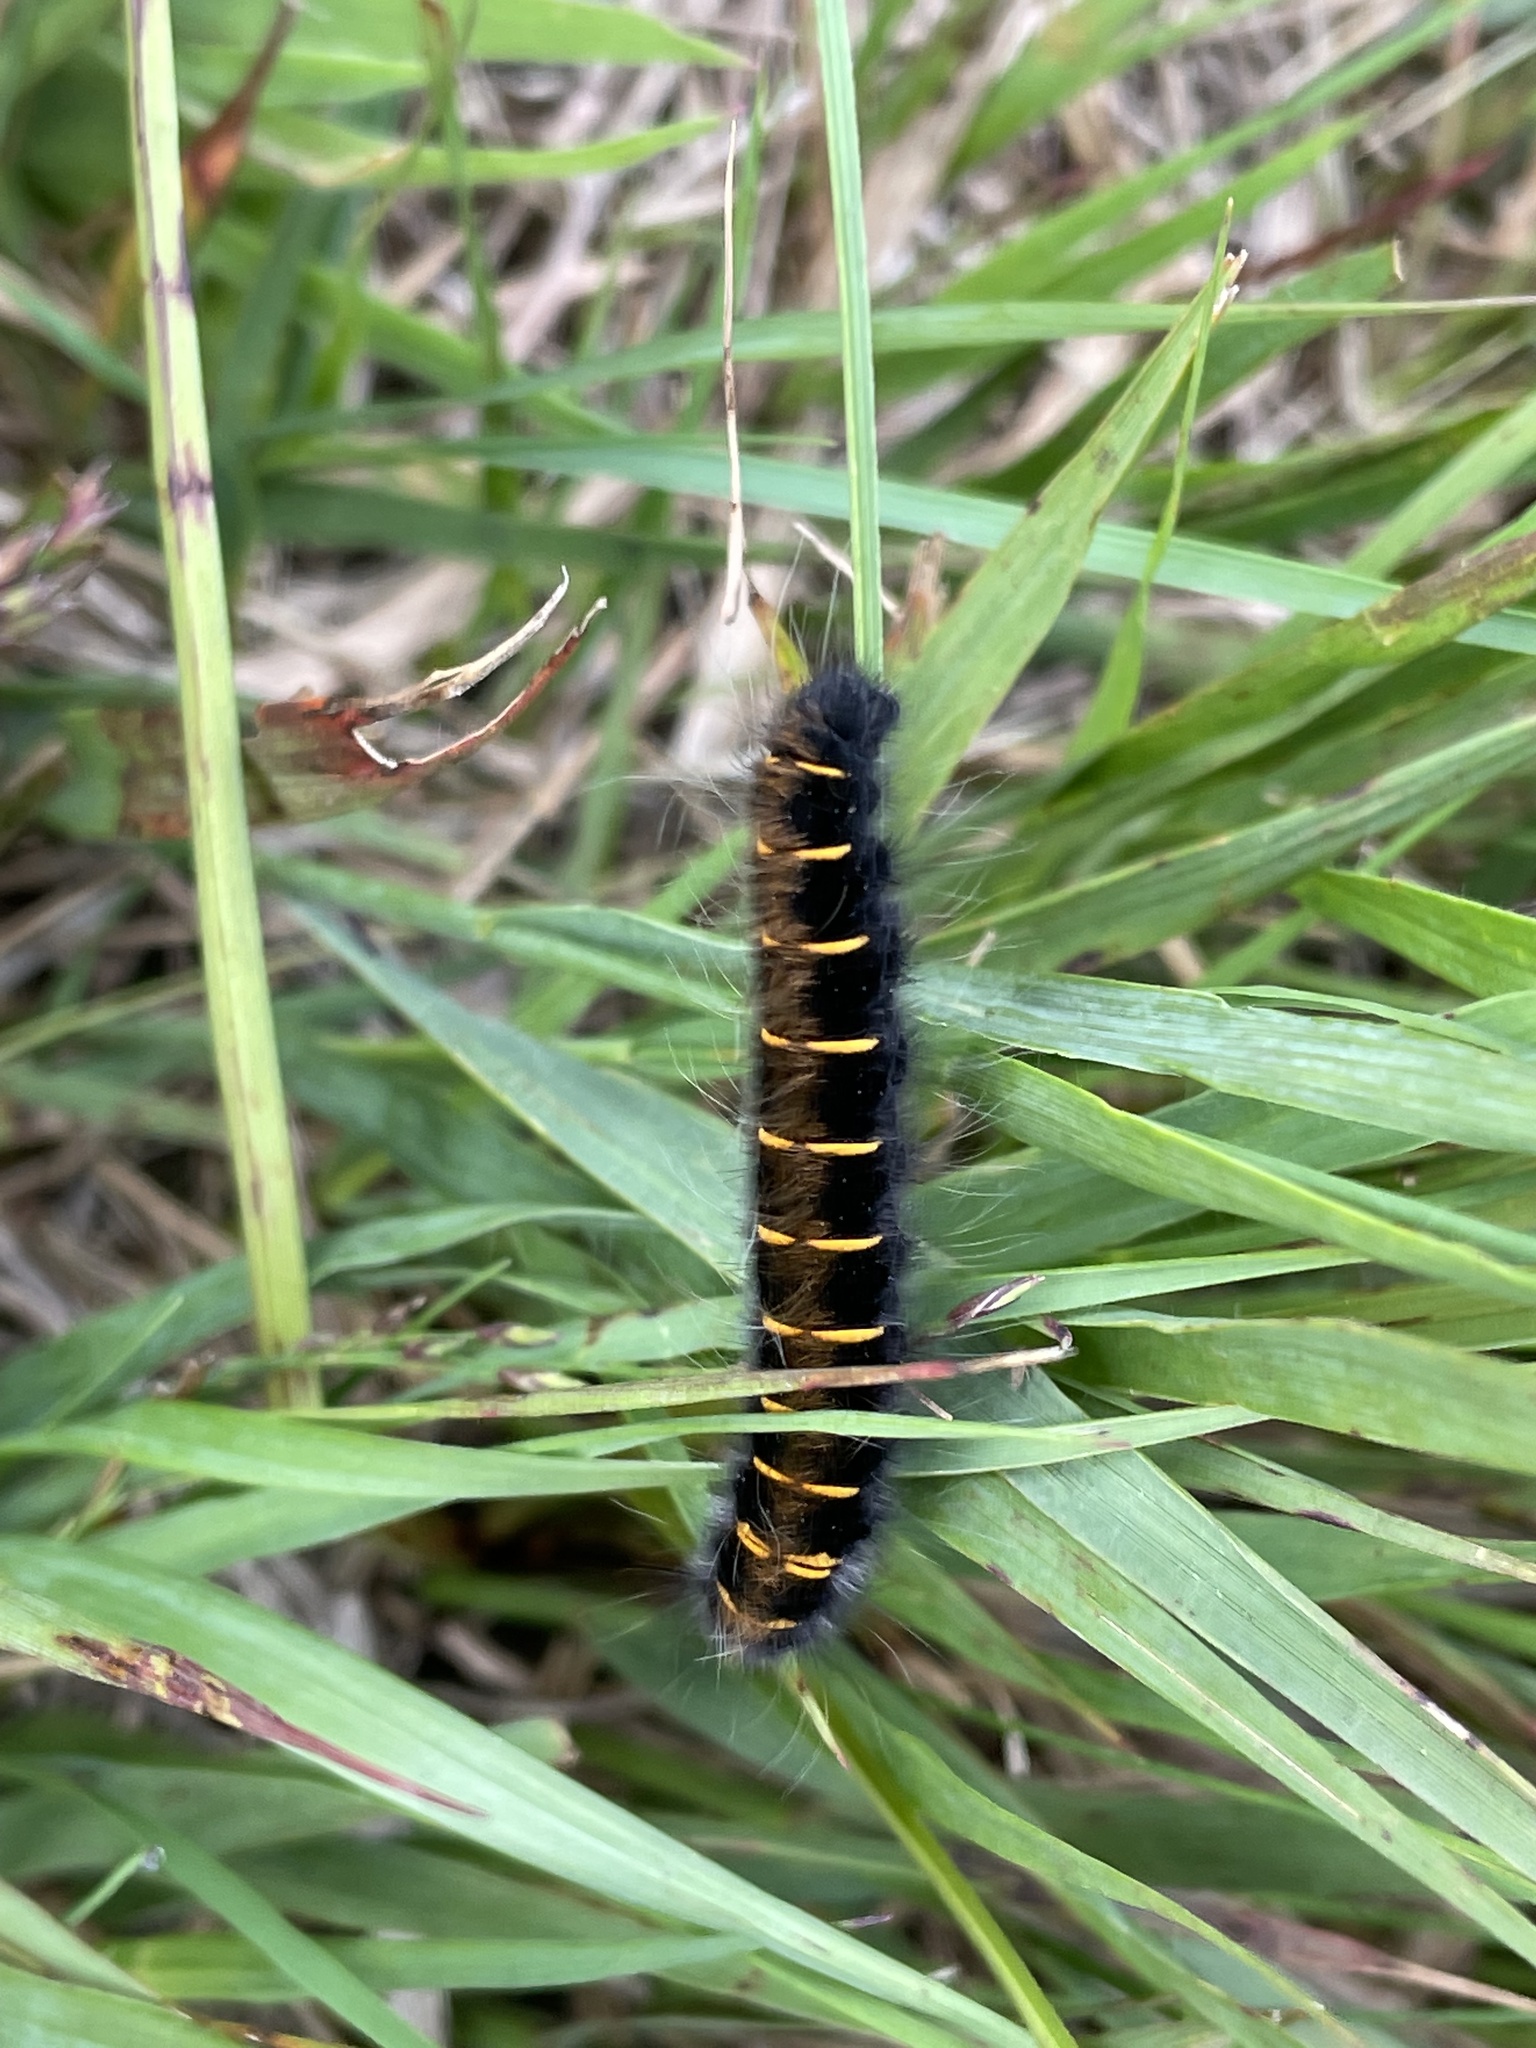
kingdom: Animalia
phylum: Arthropoda
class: Insecta
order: Lepidoptera
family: Lasiocampidae
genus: Macrothylacia
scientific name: Macrothylacia rubi
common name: Fox moth
